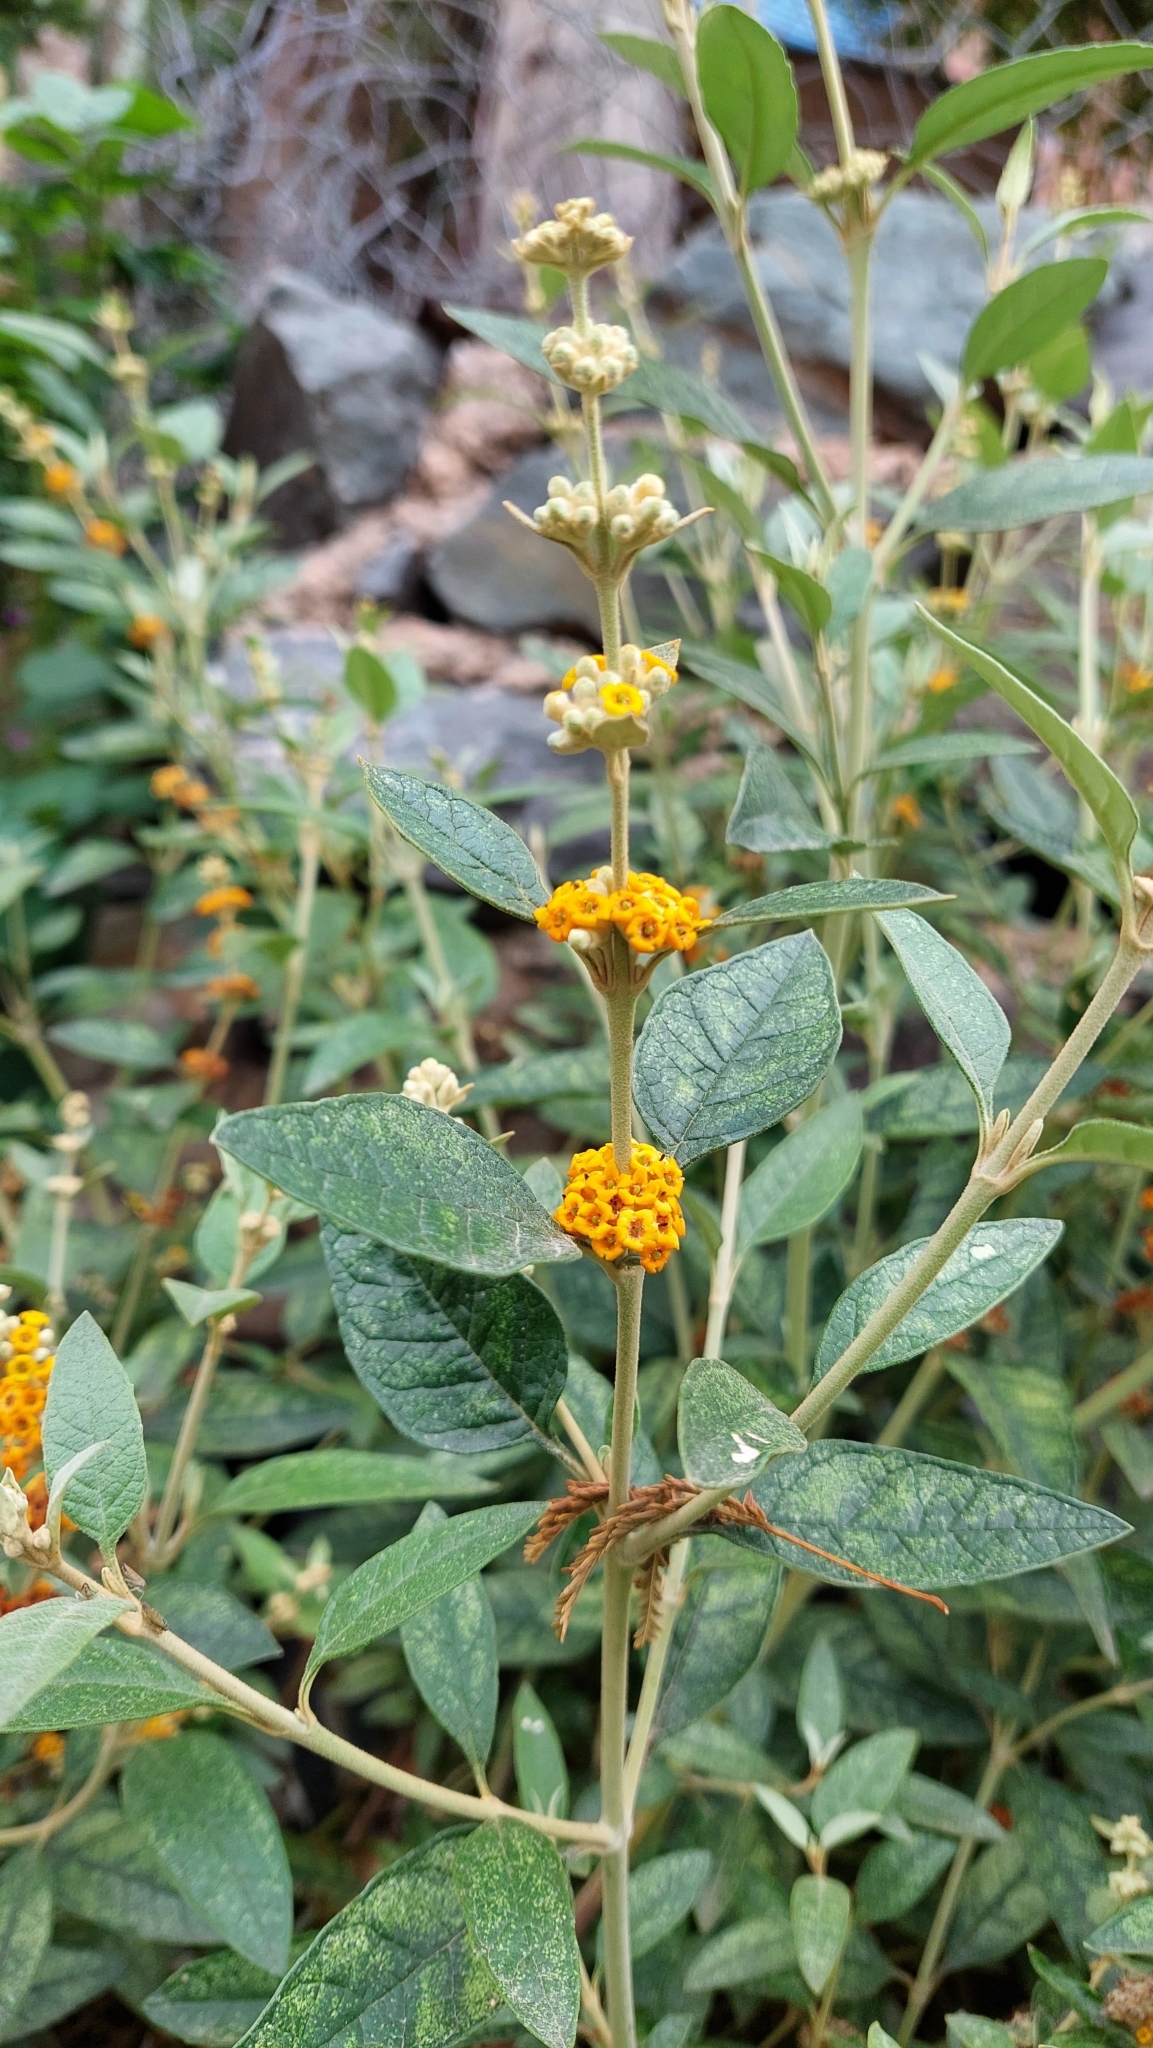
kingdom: Plantae
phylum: Tracheophyta
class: Magnoliopsida
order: Lamiales
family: Scrophulariaceae
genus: Buddleja
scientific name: Buddleja tucumanensis
